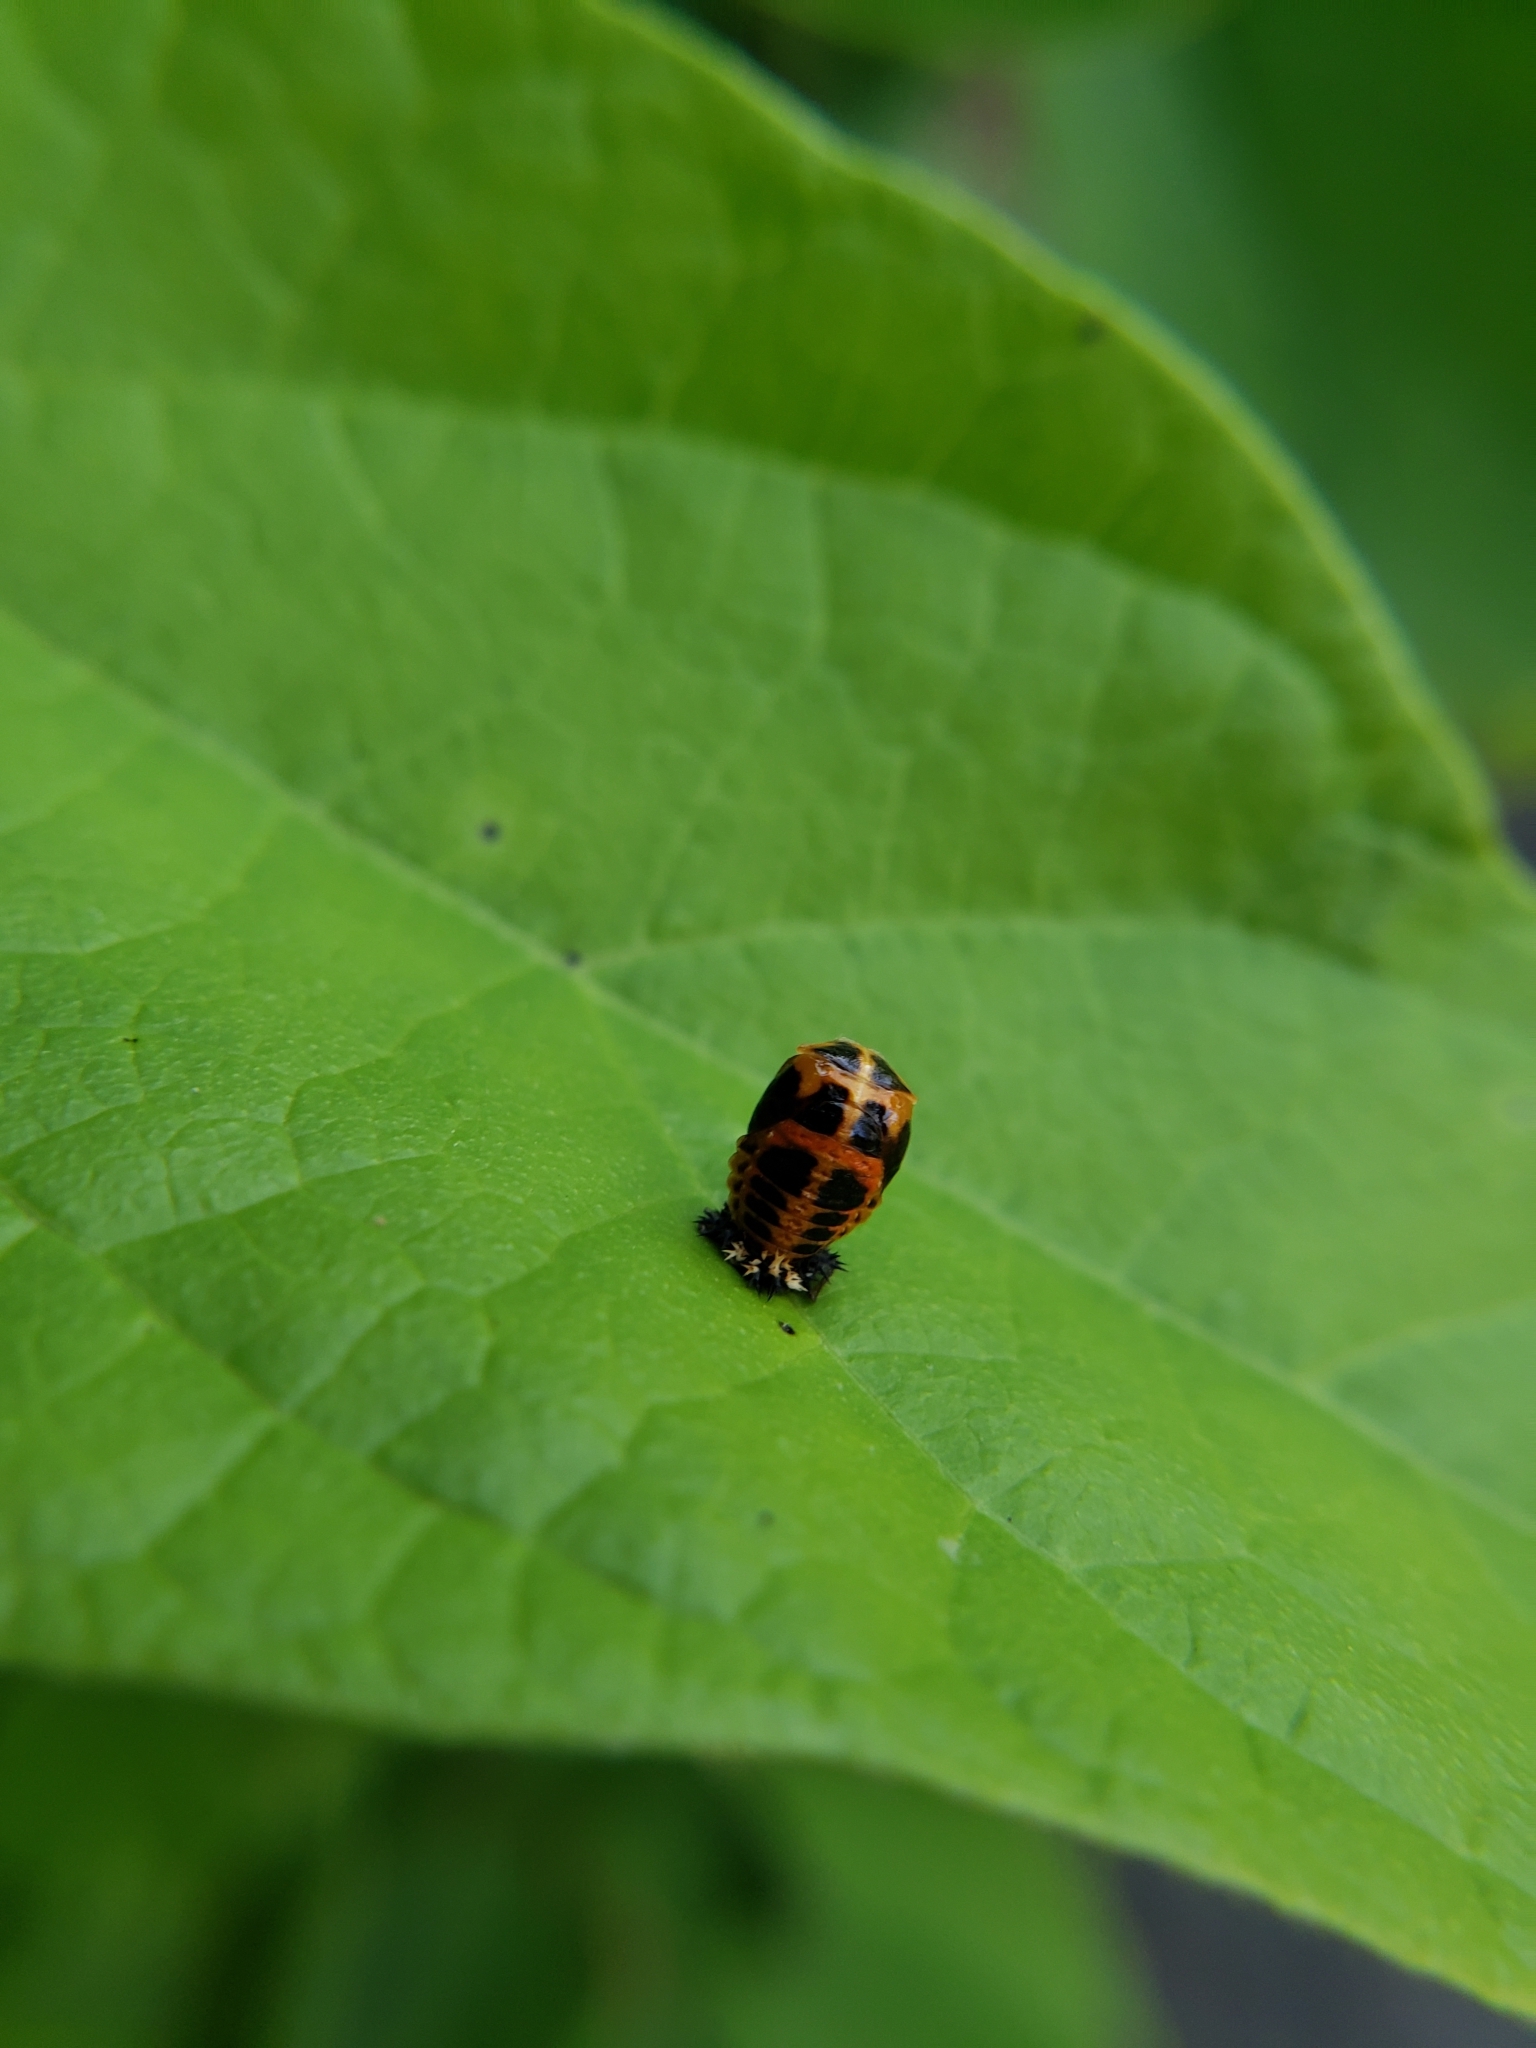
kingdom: Animalia
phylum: Arthropoda
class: Insecta
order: Coleoptera
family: Coccinellidae
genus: Harmonia
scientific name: Harmonia axyridis
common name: Harlequin ladybird
